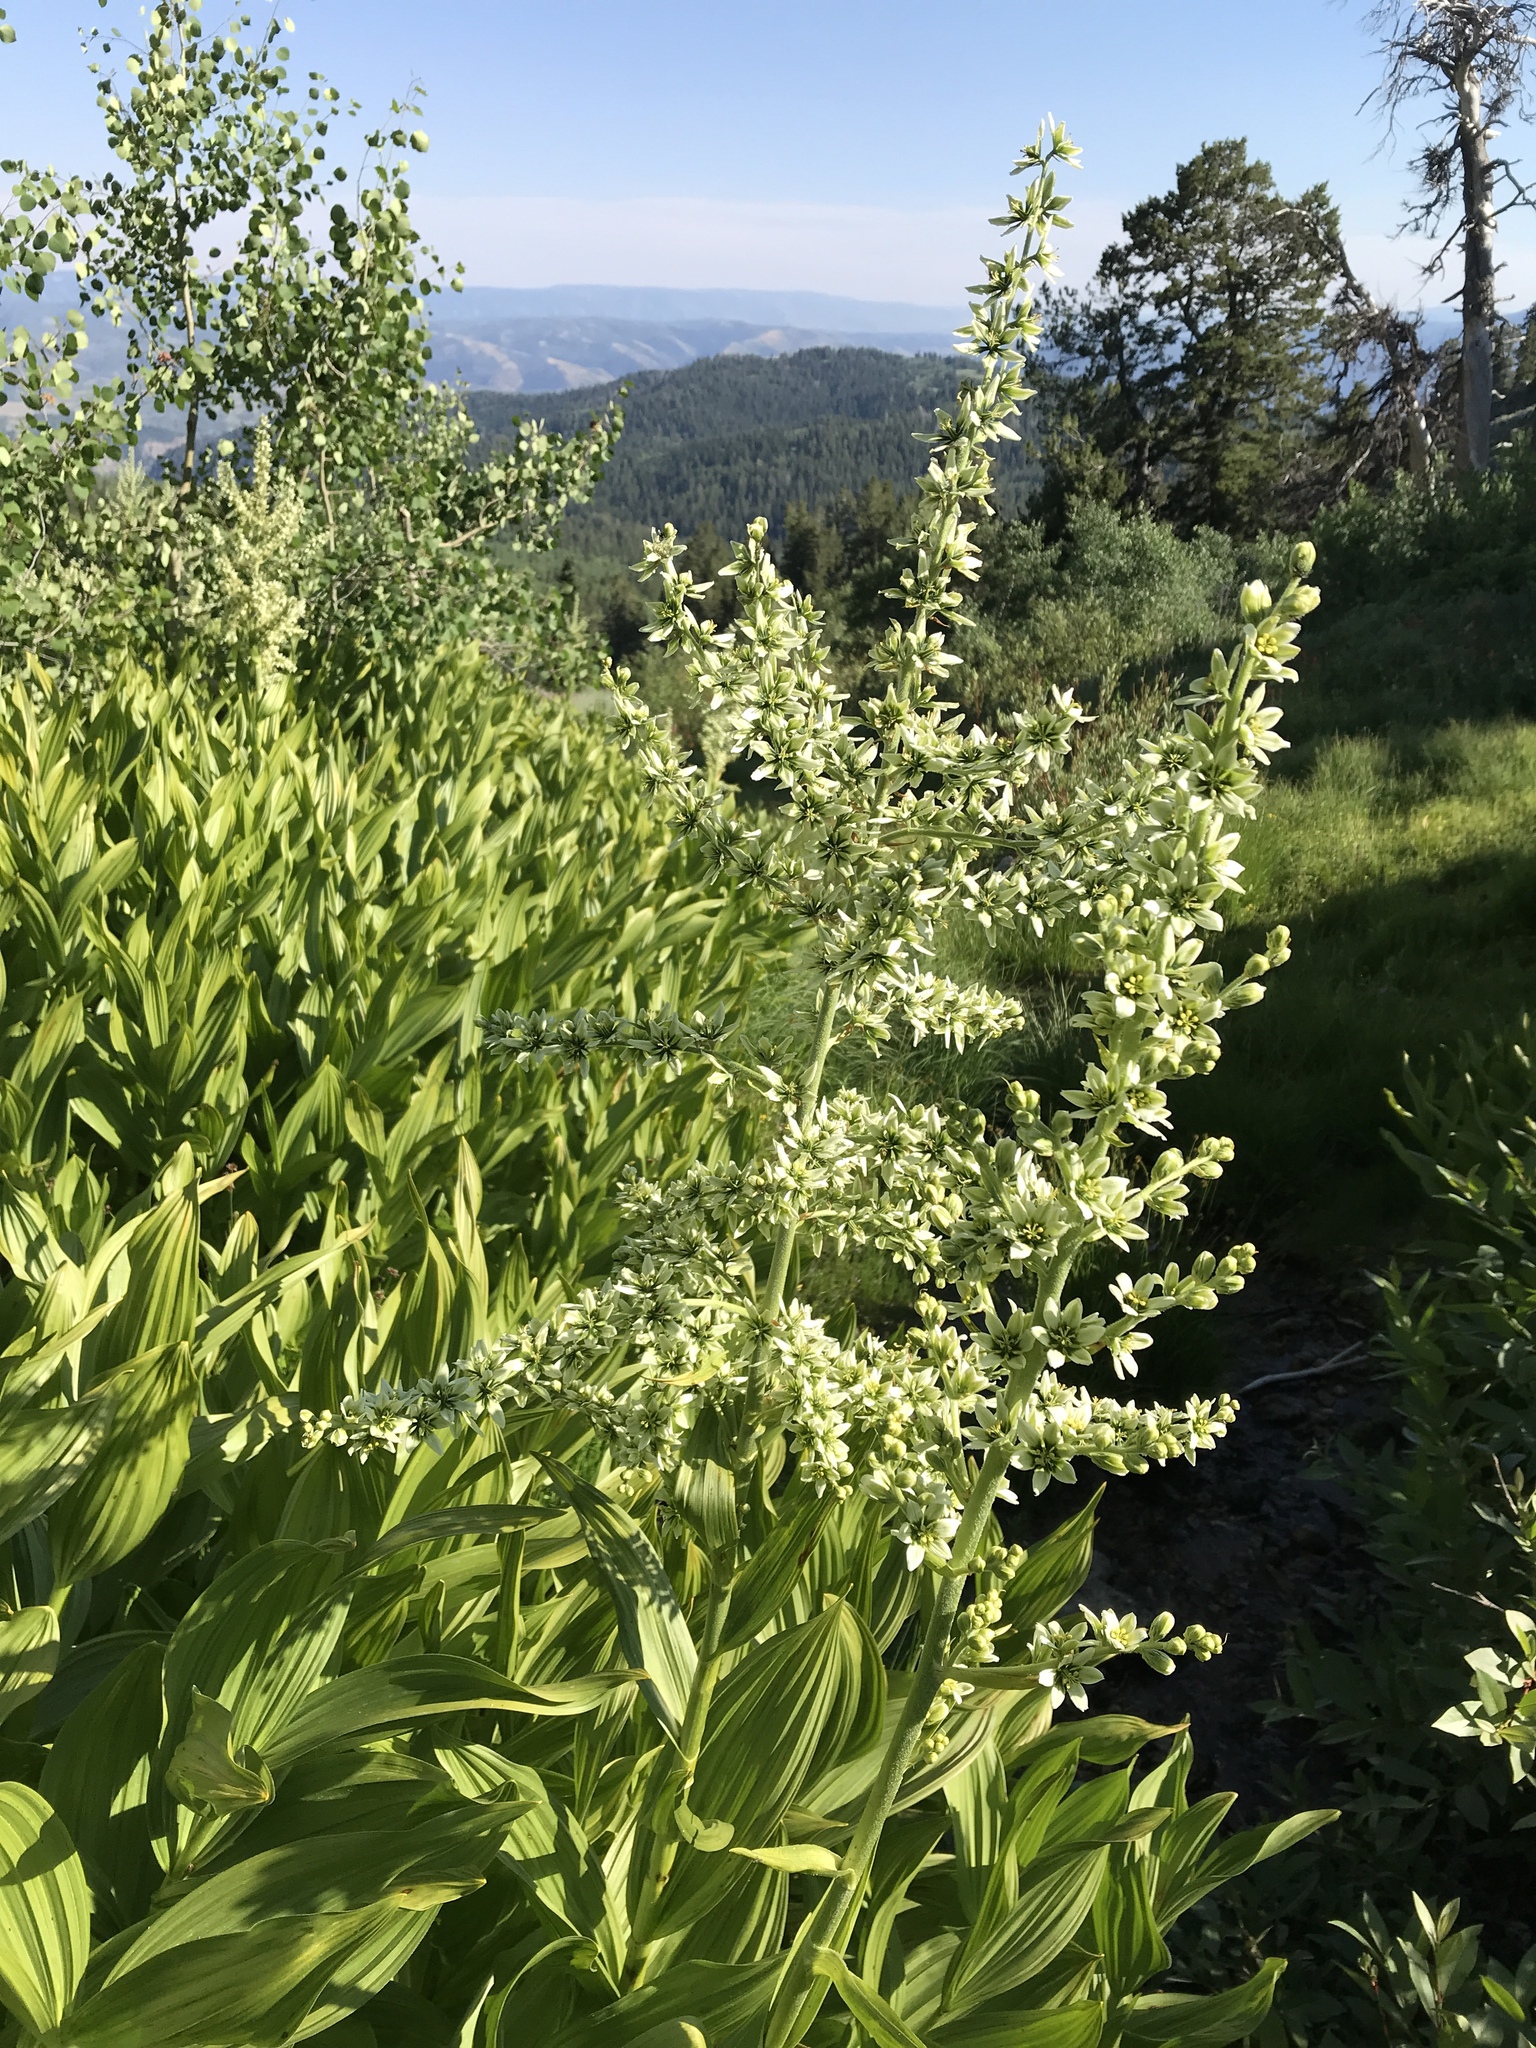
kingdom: Plantae
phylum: Tracheophyta
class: Liliopsida
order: Liliales
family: Melanthiaceae
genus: Veratrum
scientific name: Veratrum californicum
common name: California veratrum
